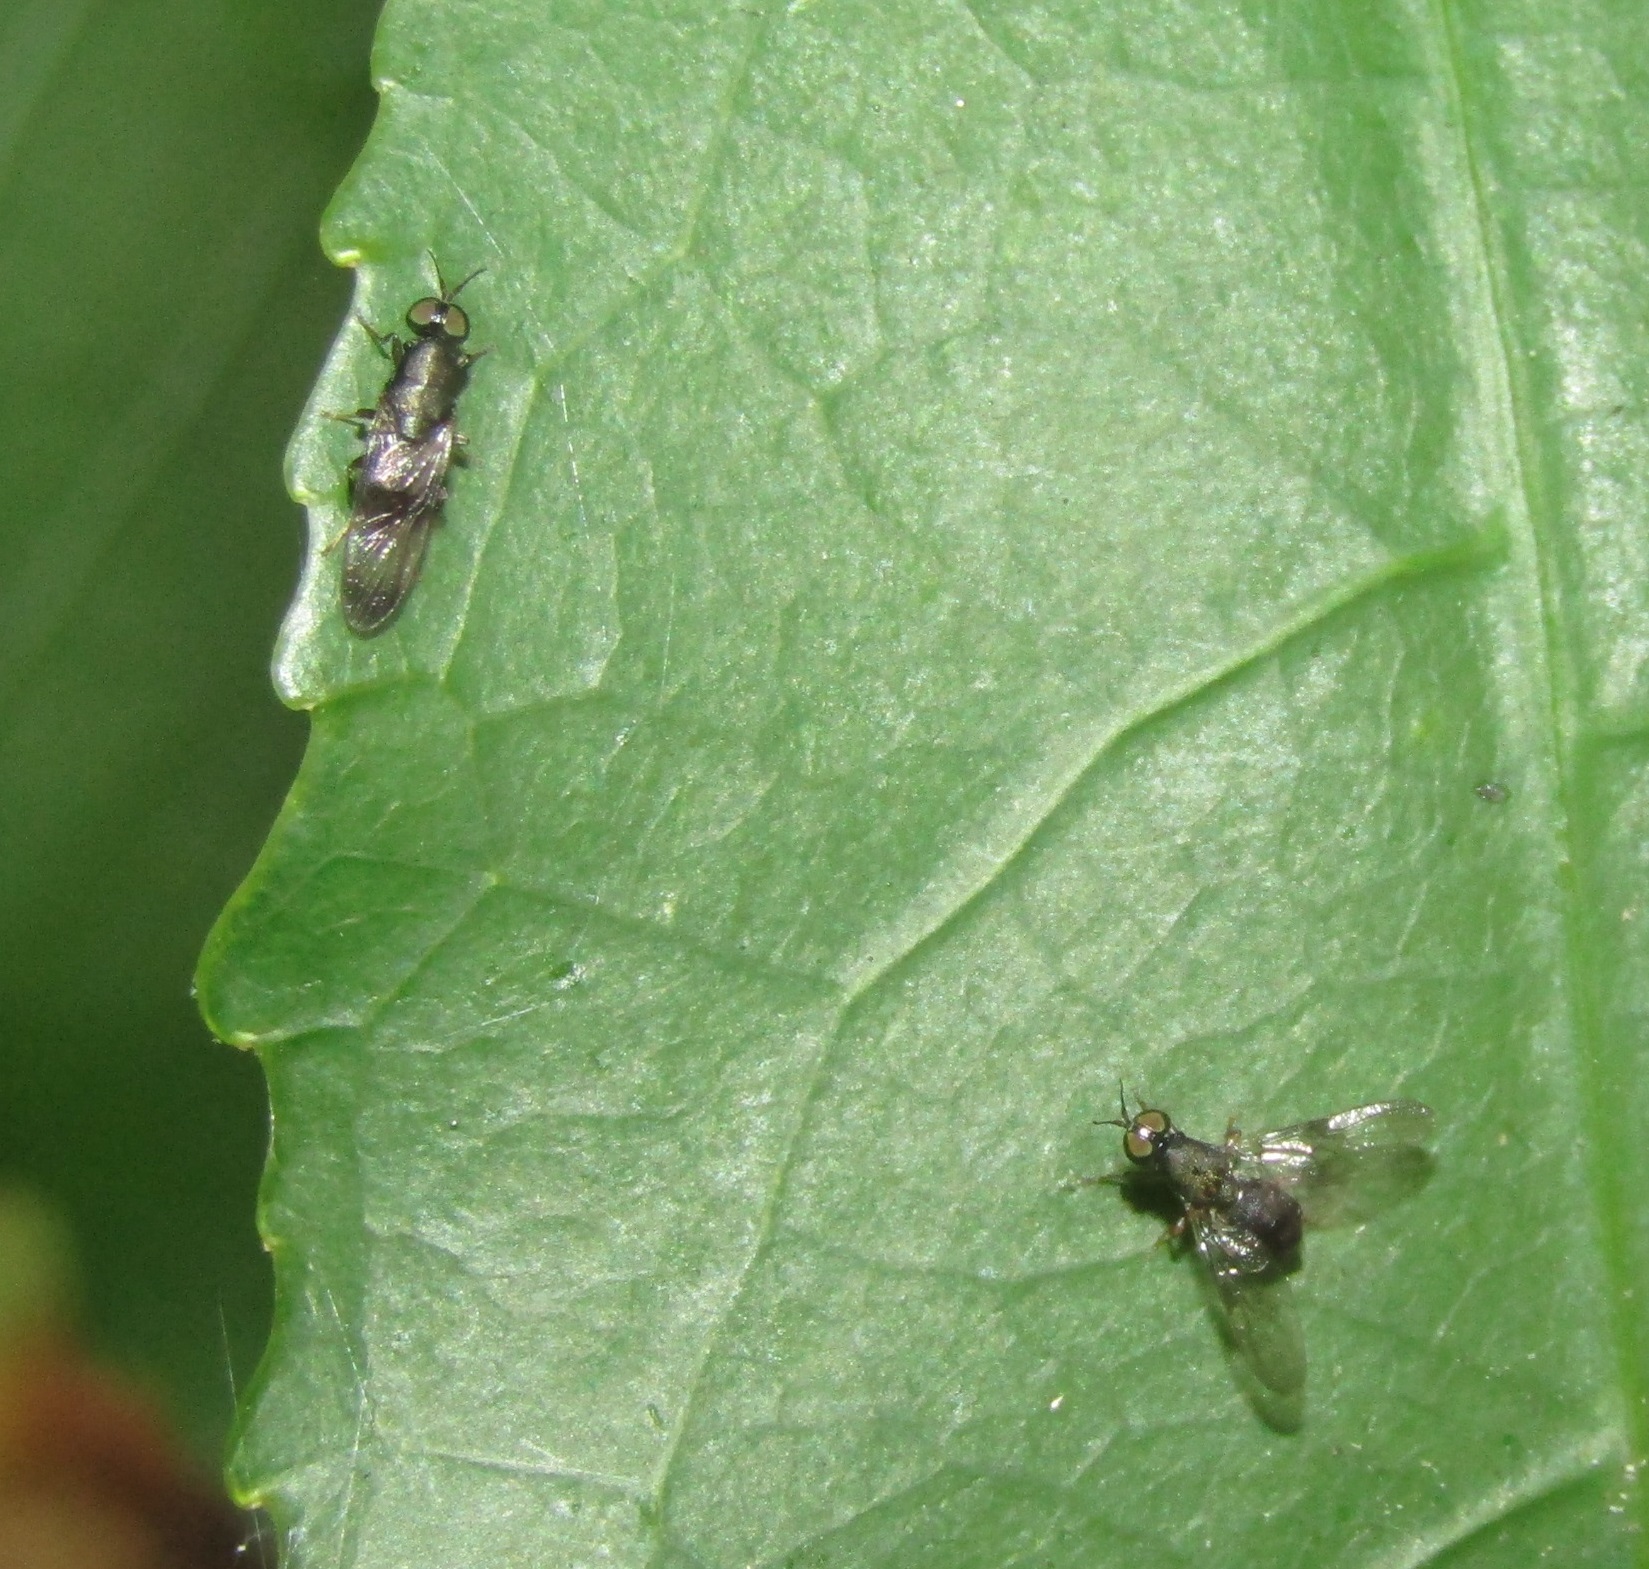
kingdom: Animalia
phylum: Arthropoda
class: Insecta
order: Diptera
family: Stratiomyidae
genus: Dysbiota
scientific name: Dysbiota peregrina
